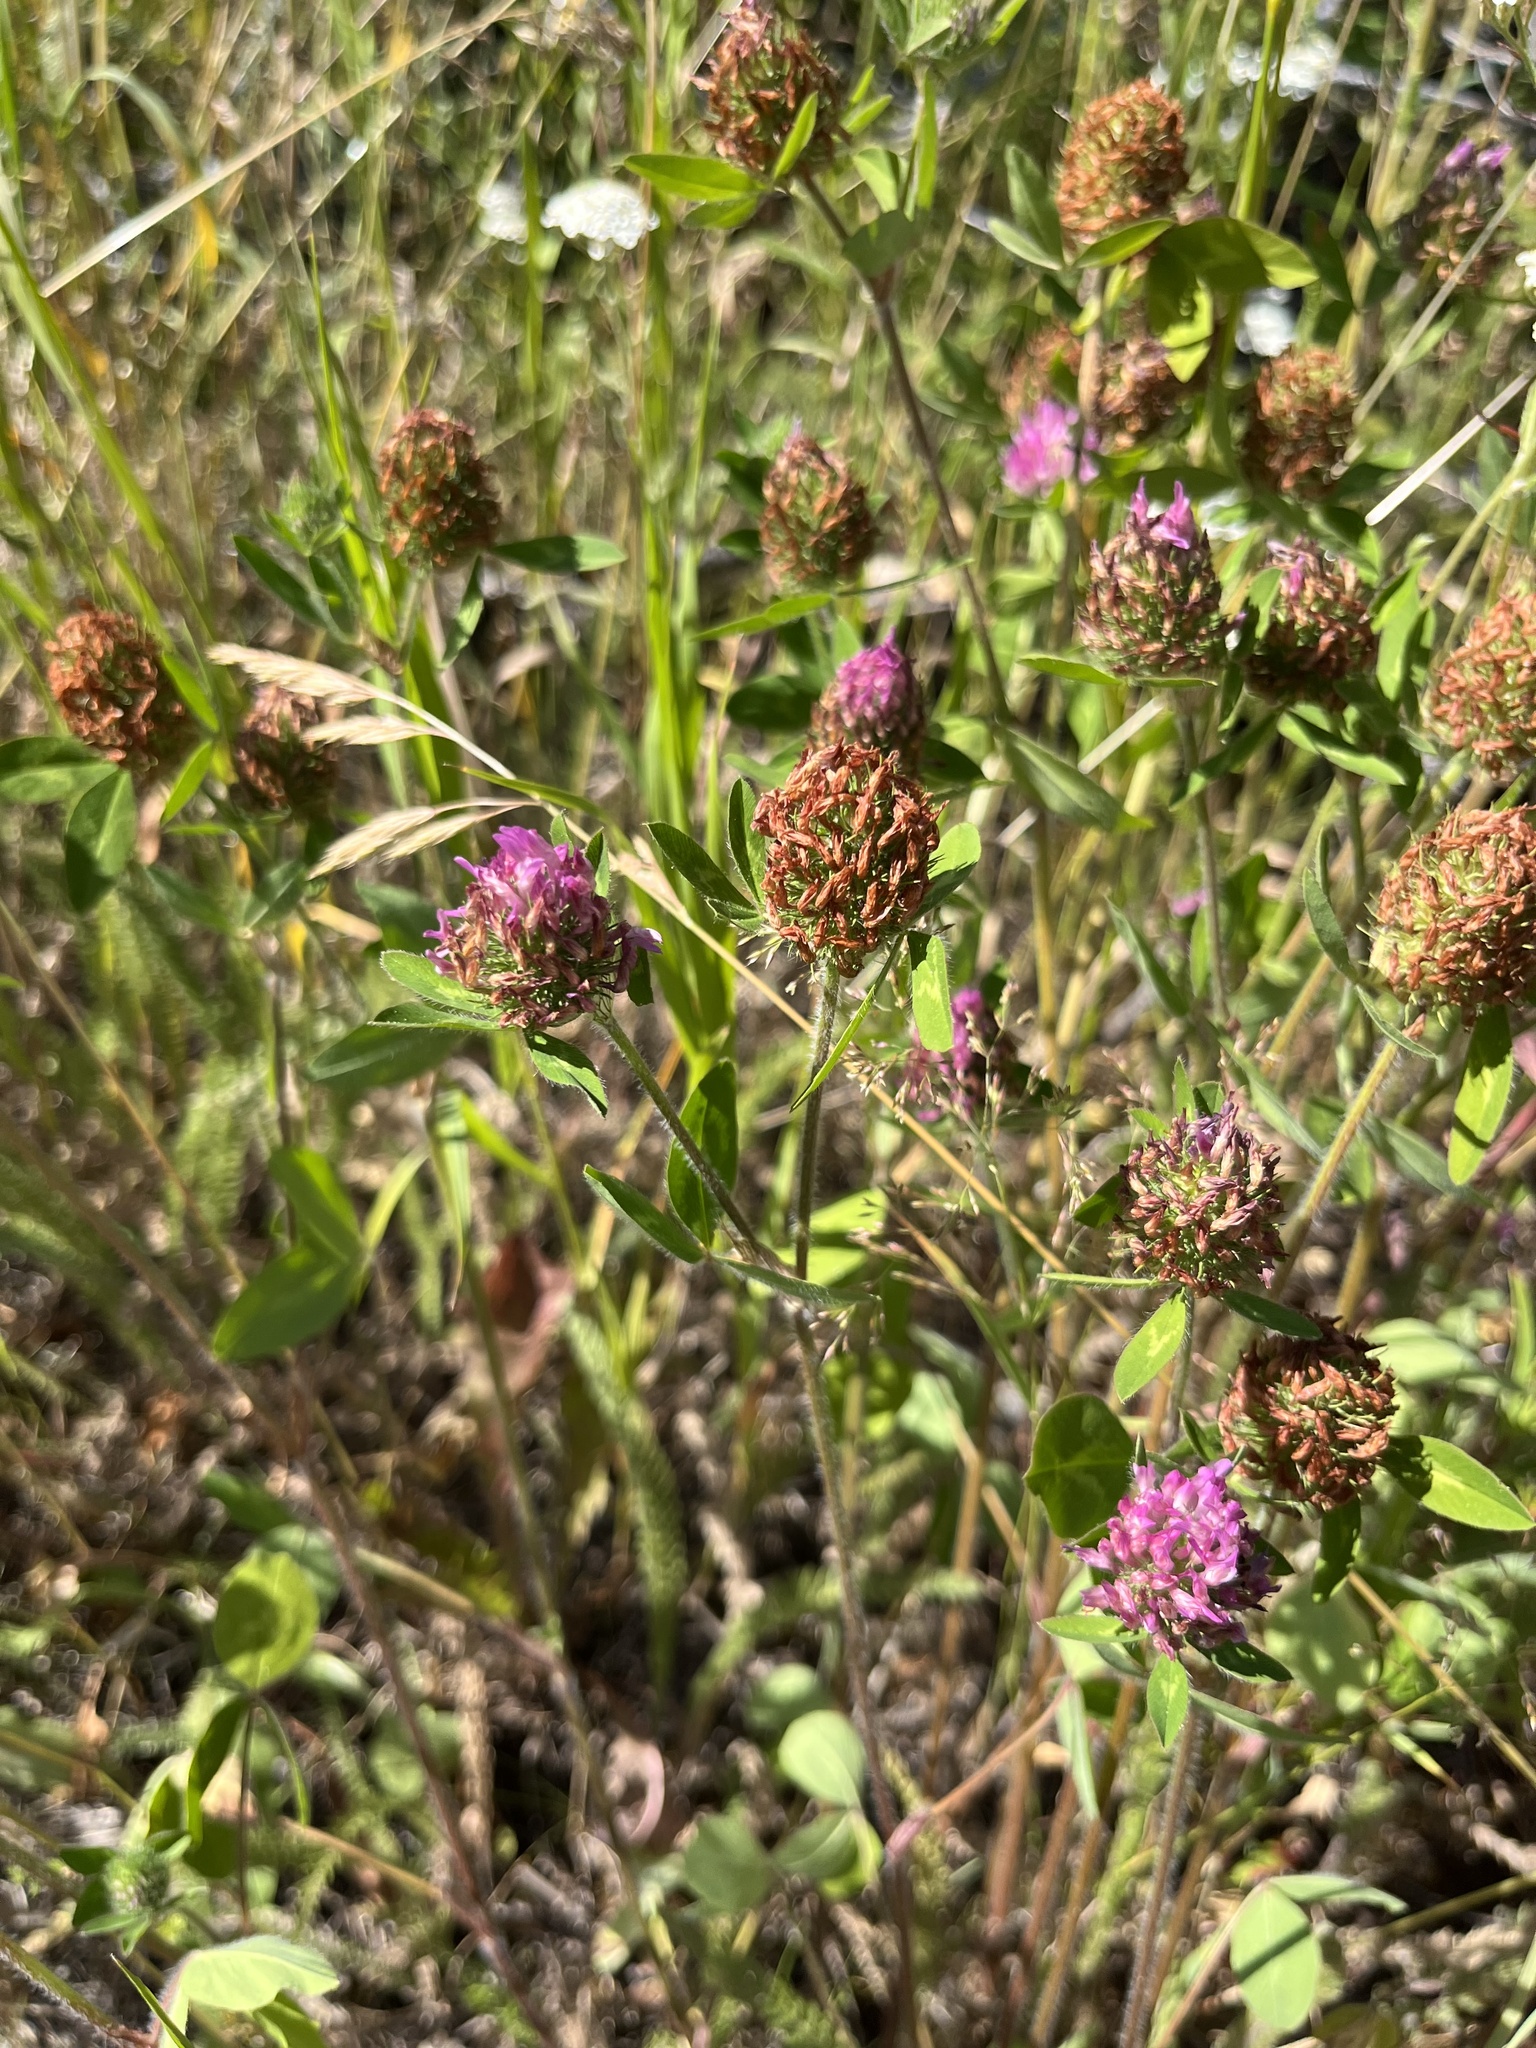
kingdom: Plantae
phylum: Tracheophyta
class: Magnoliopsida
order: Fabales
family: Fabaceae
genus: Trifolium
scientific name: Trifolium pratense
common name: Red clover
